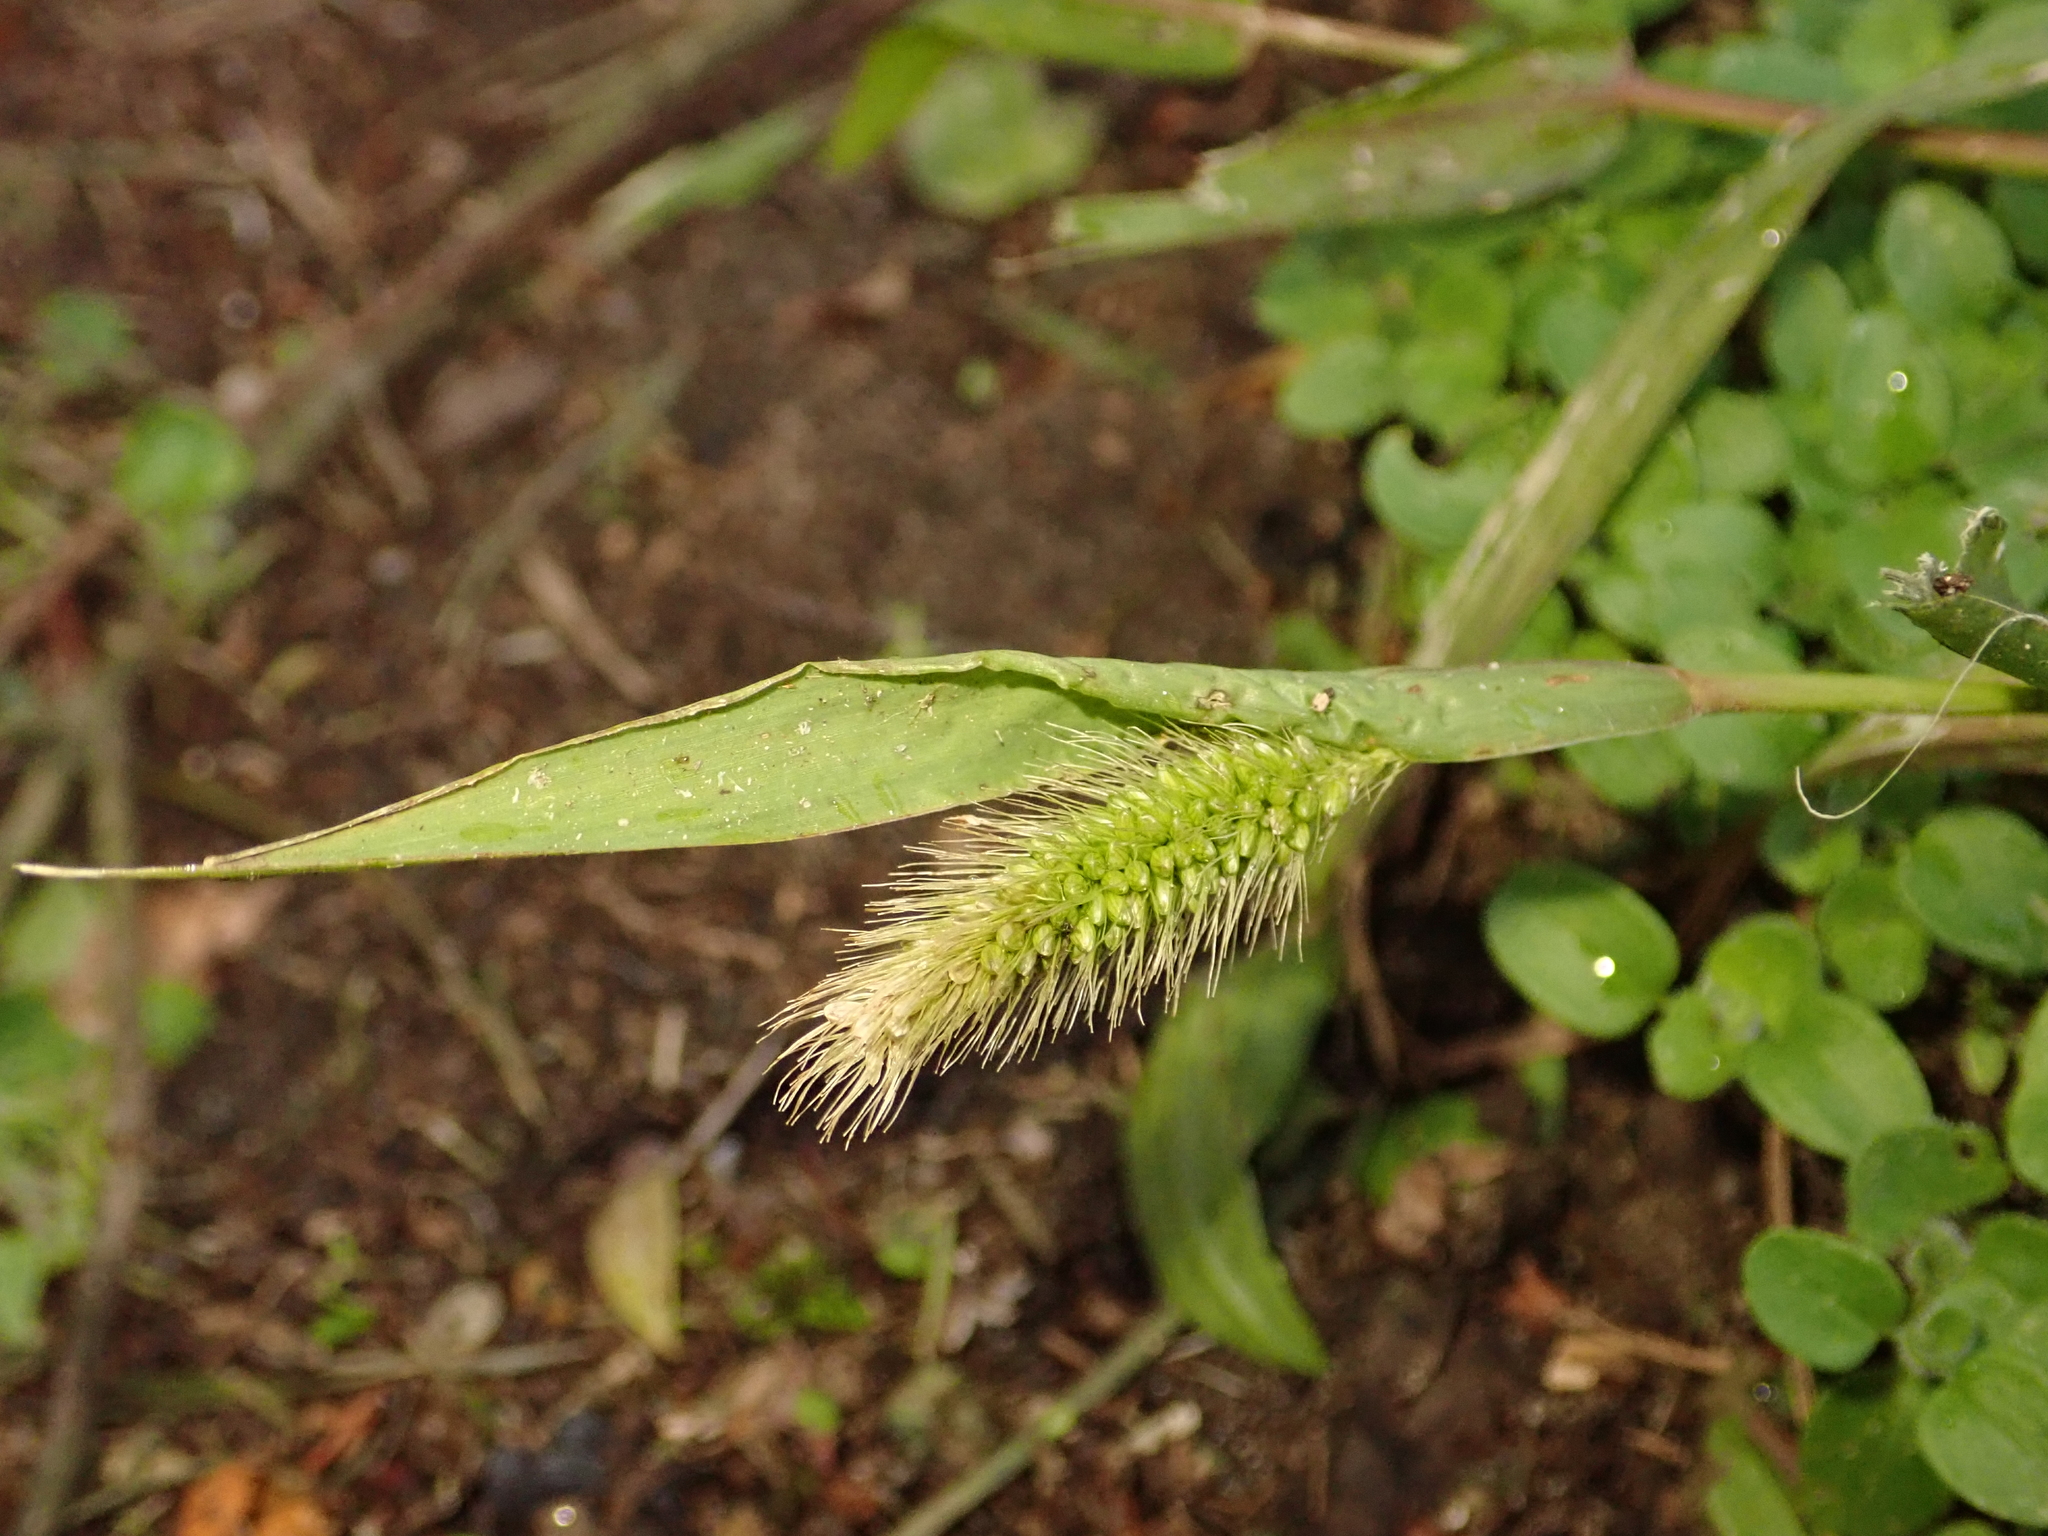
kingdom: Plantae
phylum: Tracheophyta
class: Liliopsida
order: Poales
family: Poaceae
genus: Setaria
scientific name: Setaria viridis
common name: Green bristlegrass
